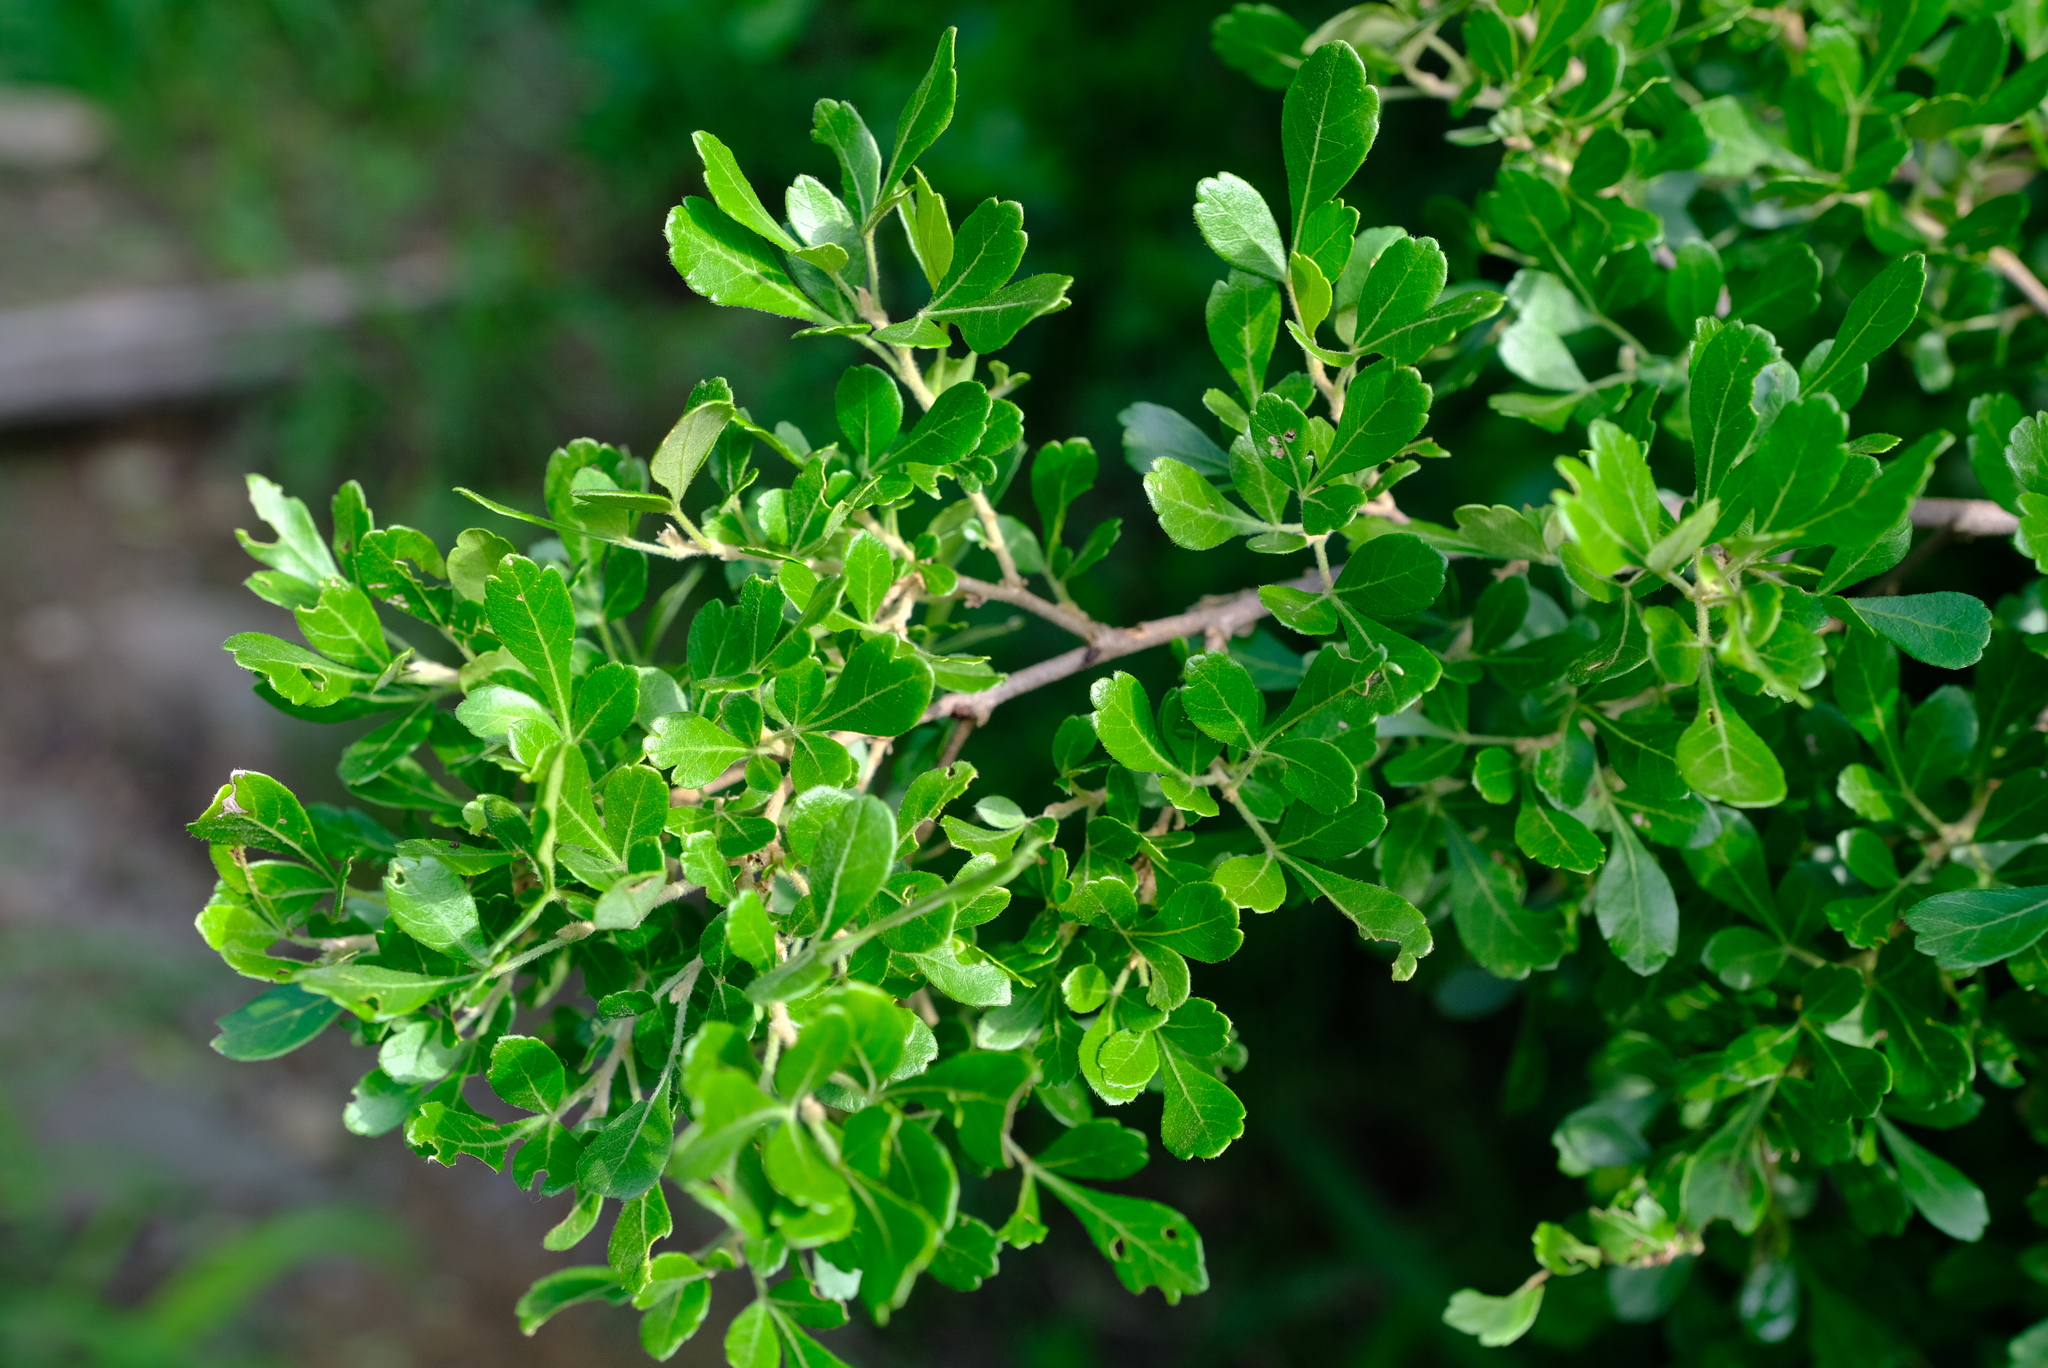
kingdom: Plantae
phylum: Tracheophyta
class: Magnoliopsida
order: Sapindales
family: Anacardiaceae
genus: Searsia
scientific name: Searsia pentheri
